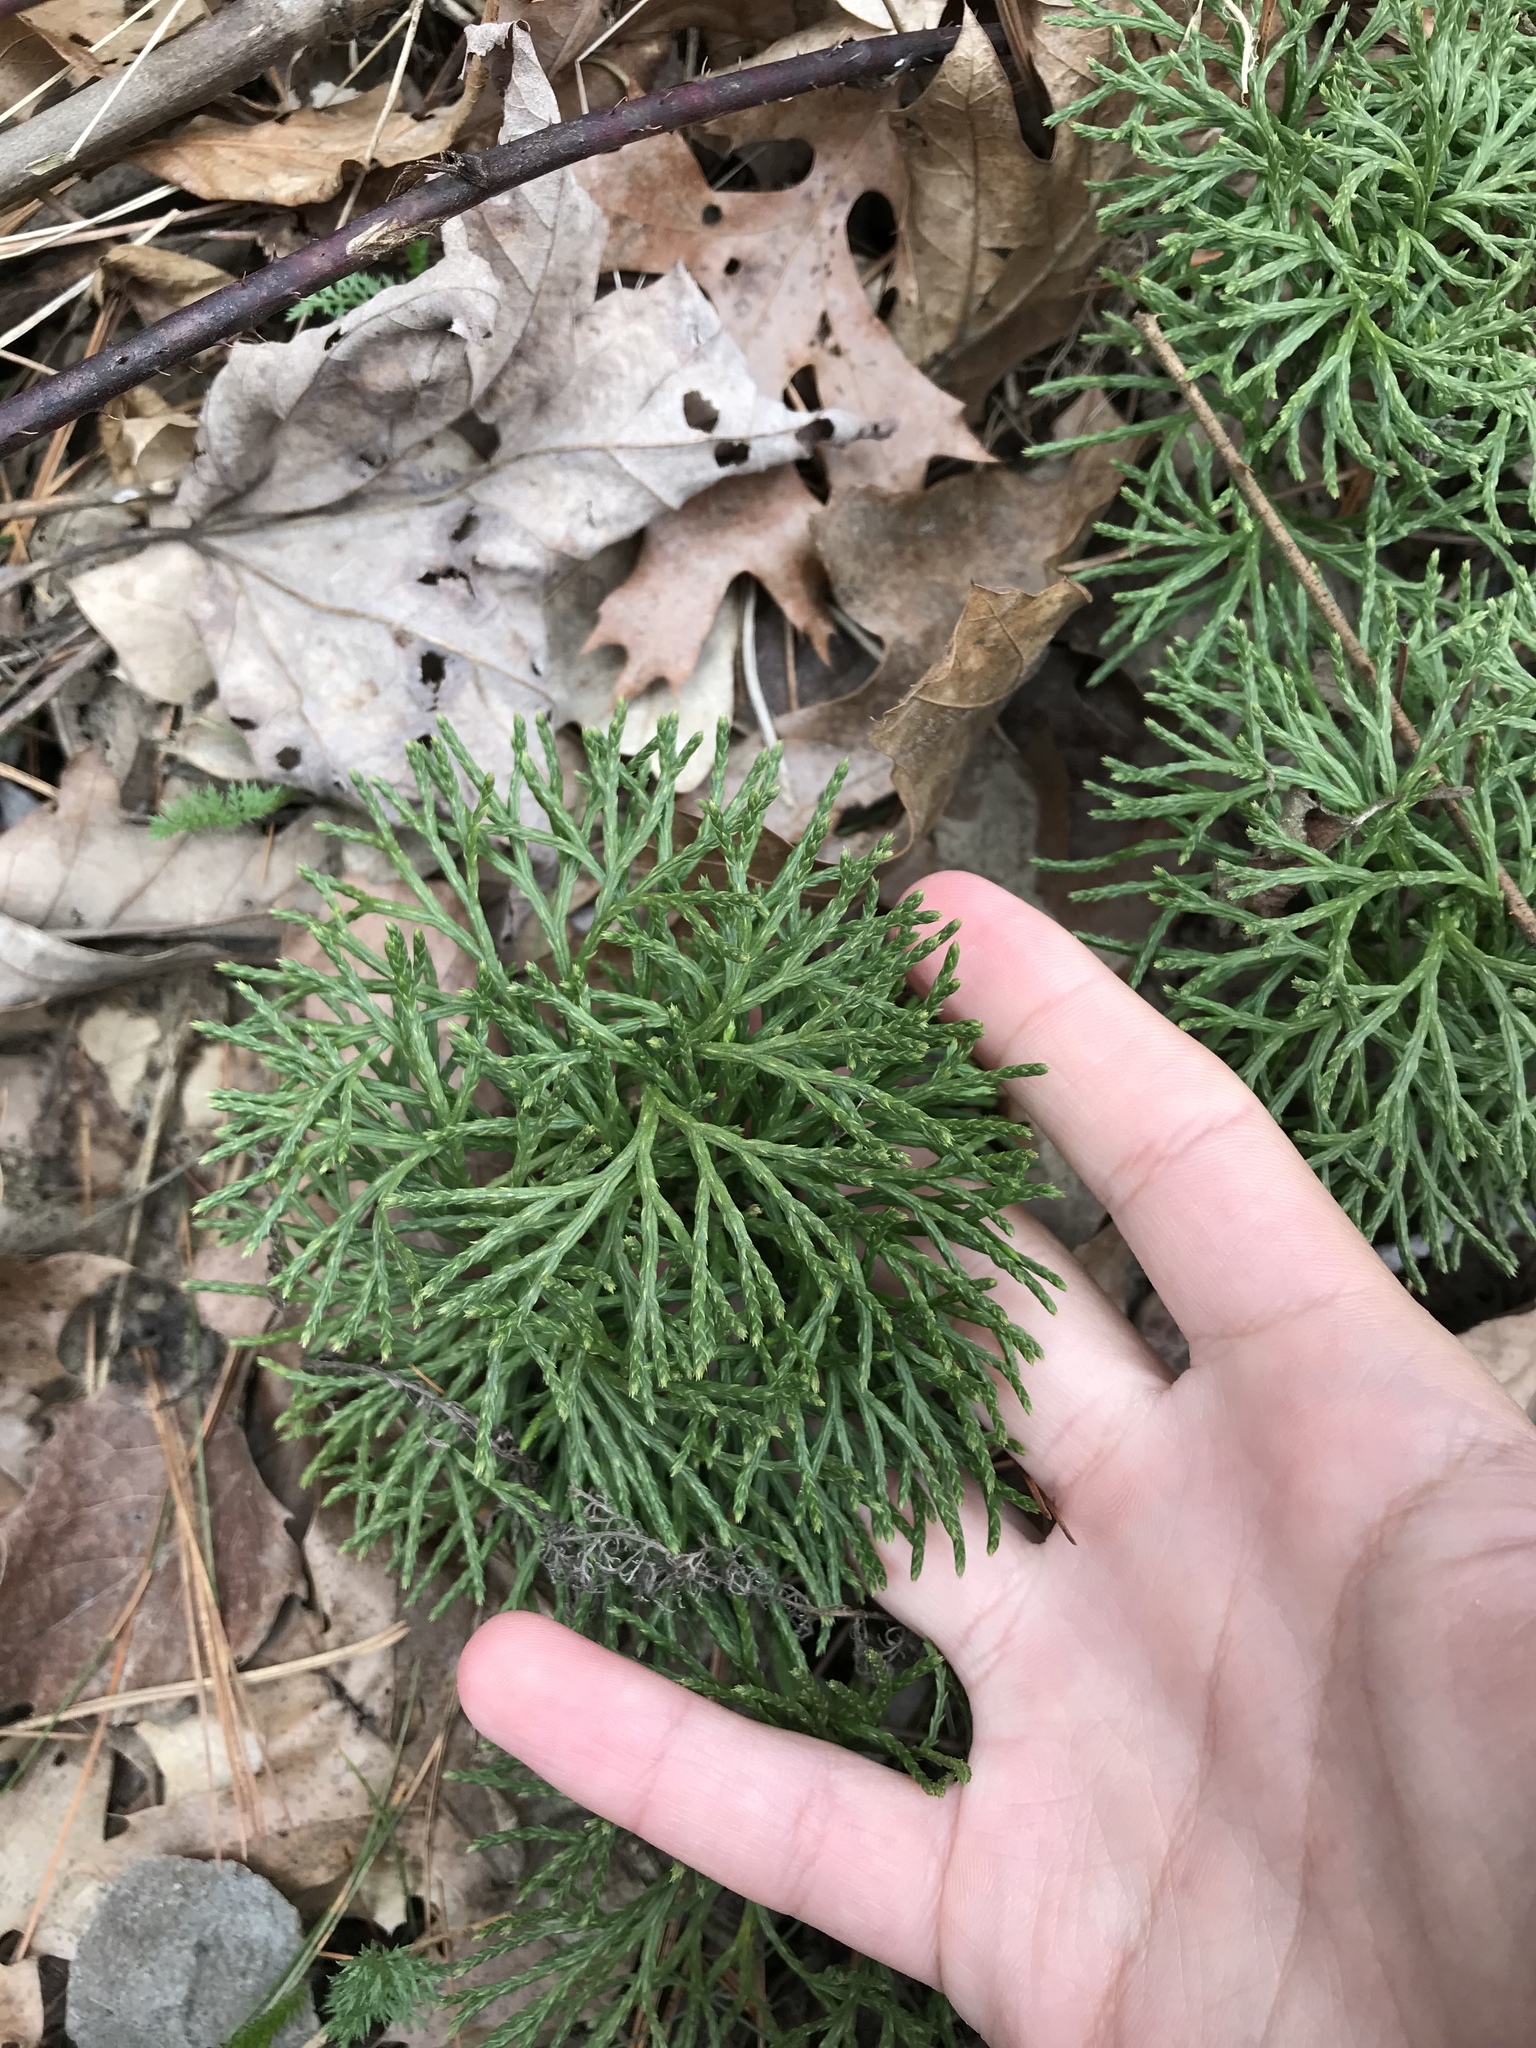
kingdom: Plantae
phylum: Tracheophyta
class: Lycopodiopsida
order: Lycopodiales
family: Lycopodiaceae
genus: Diphasiastrum
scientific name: Diphasiastrum tristachyum
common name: Blue ground-cedar
